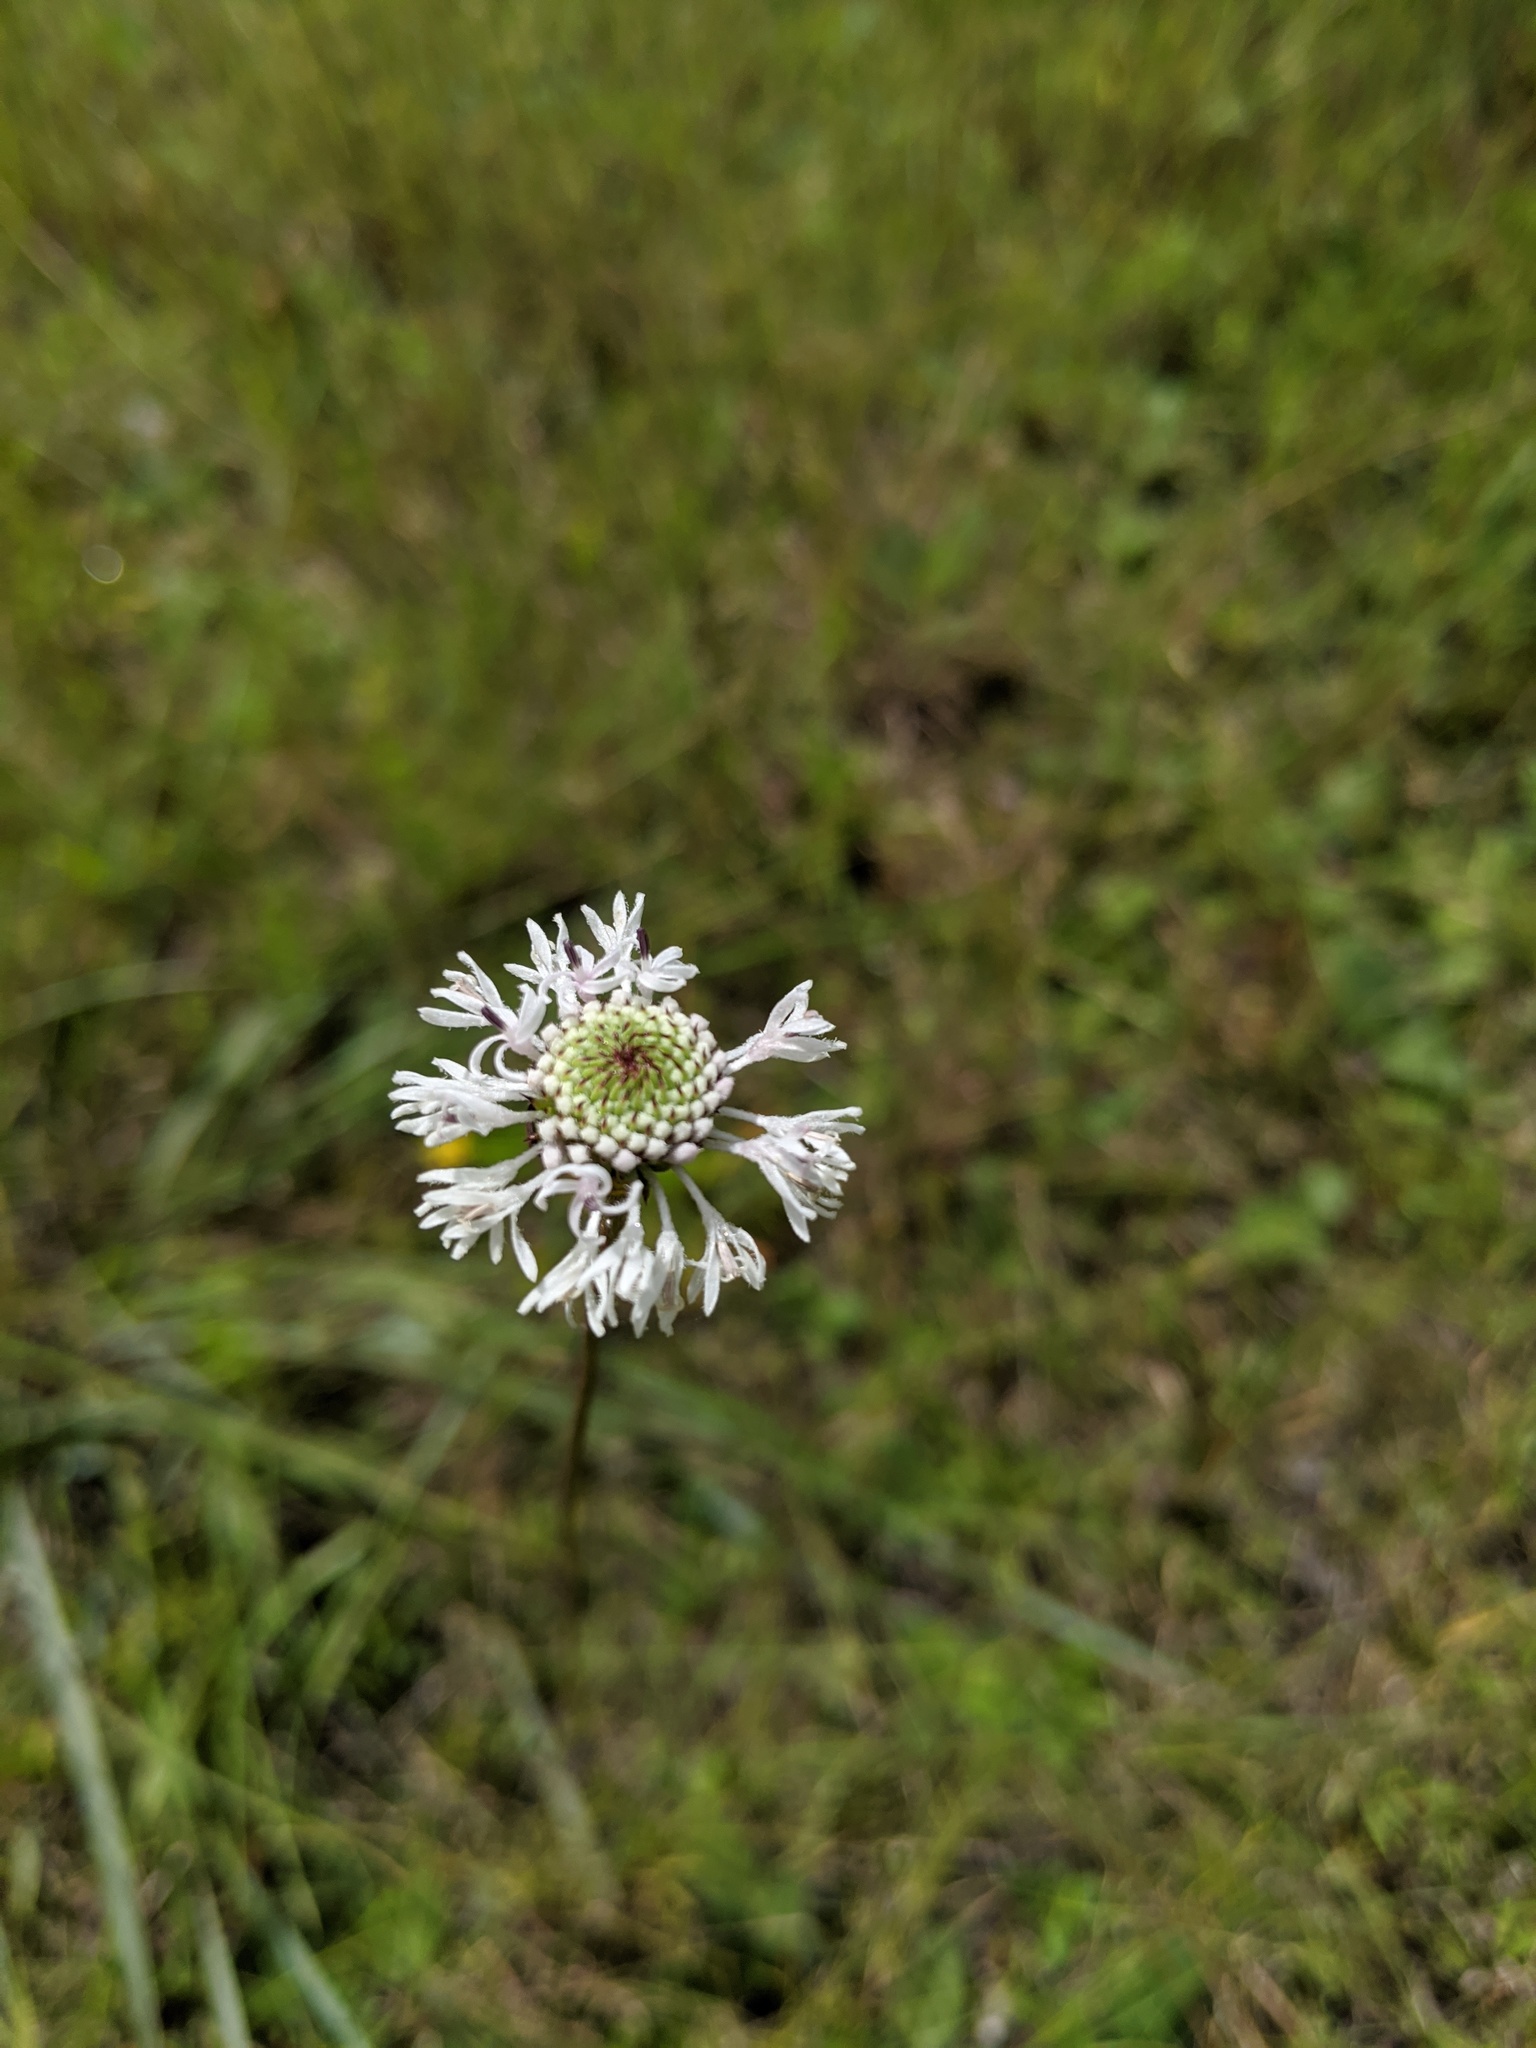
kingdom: Plantae
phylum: Tracheophyta
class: Magnoliopsida
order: Asterales
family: Asteraceae
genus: Marshallia
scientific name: Marshallia graminifolia
